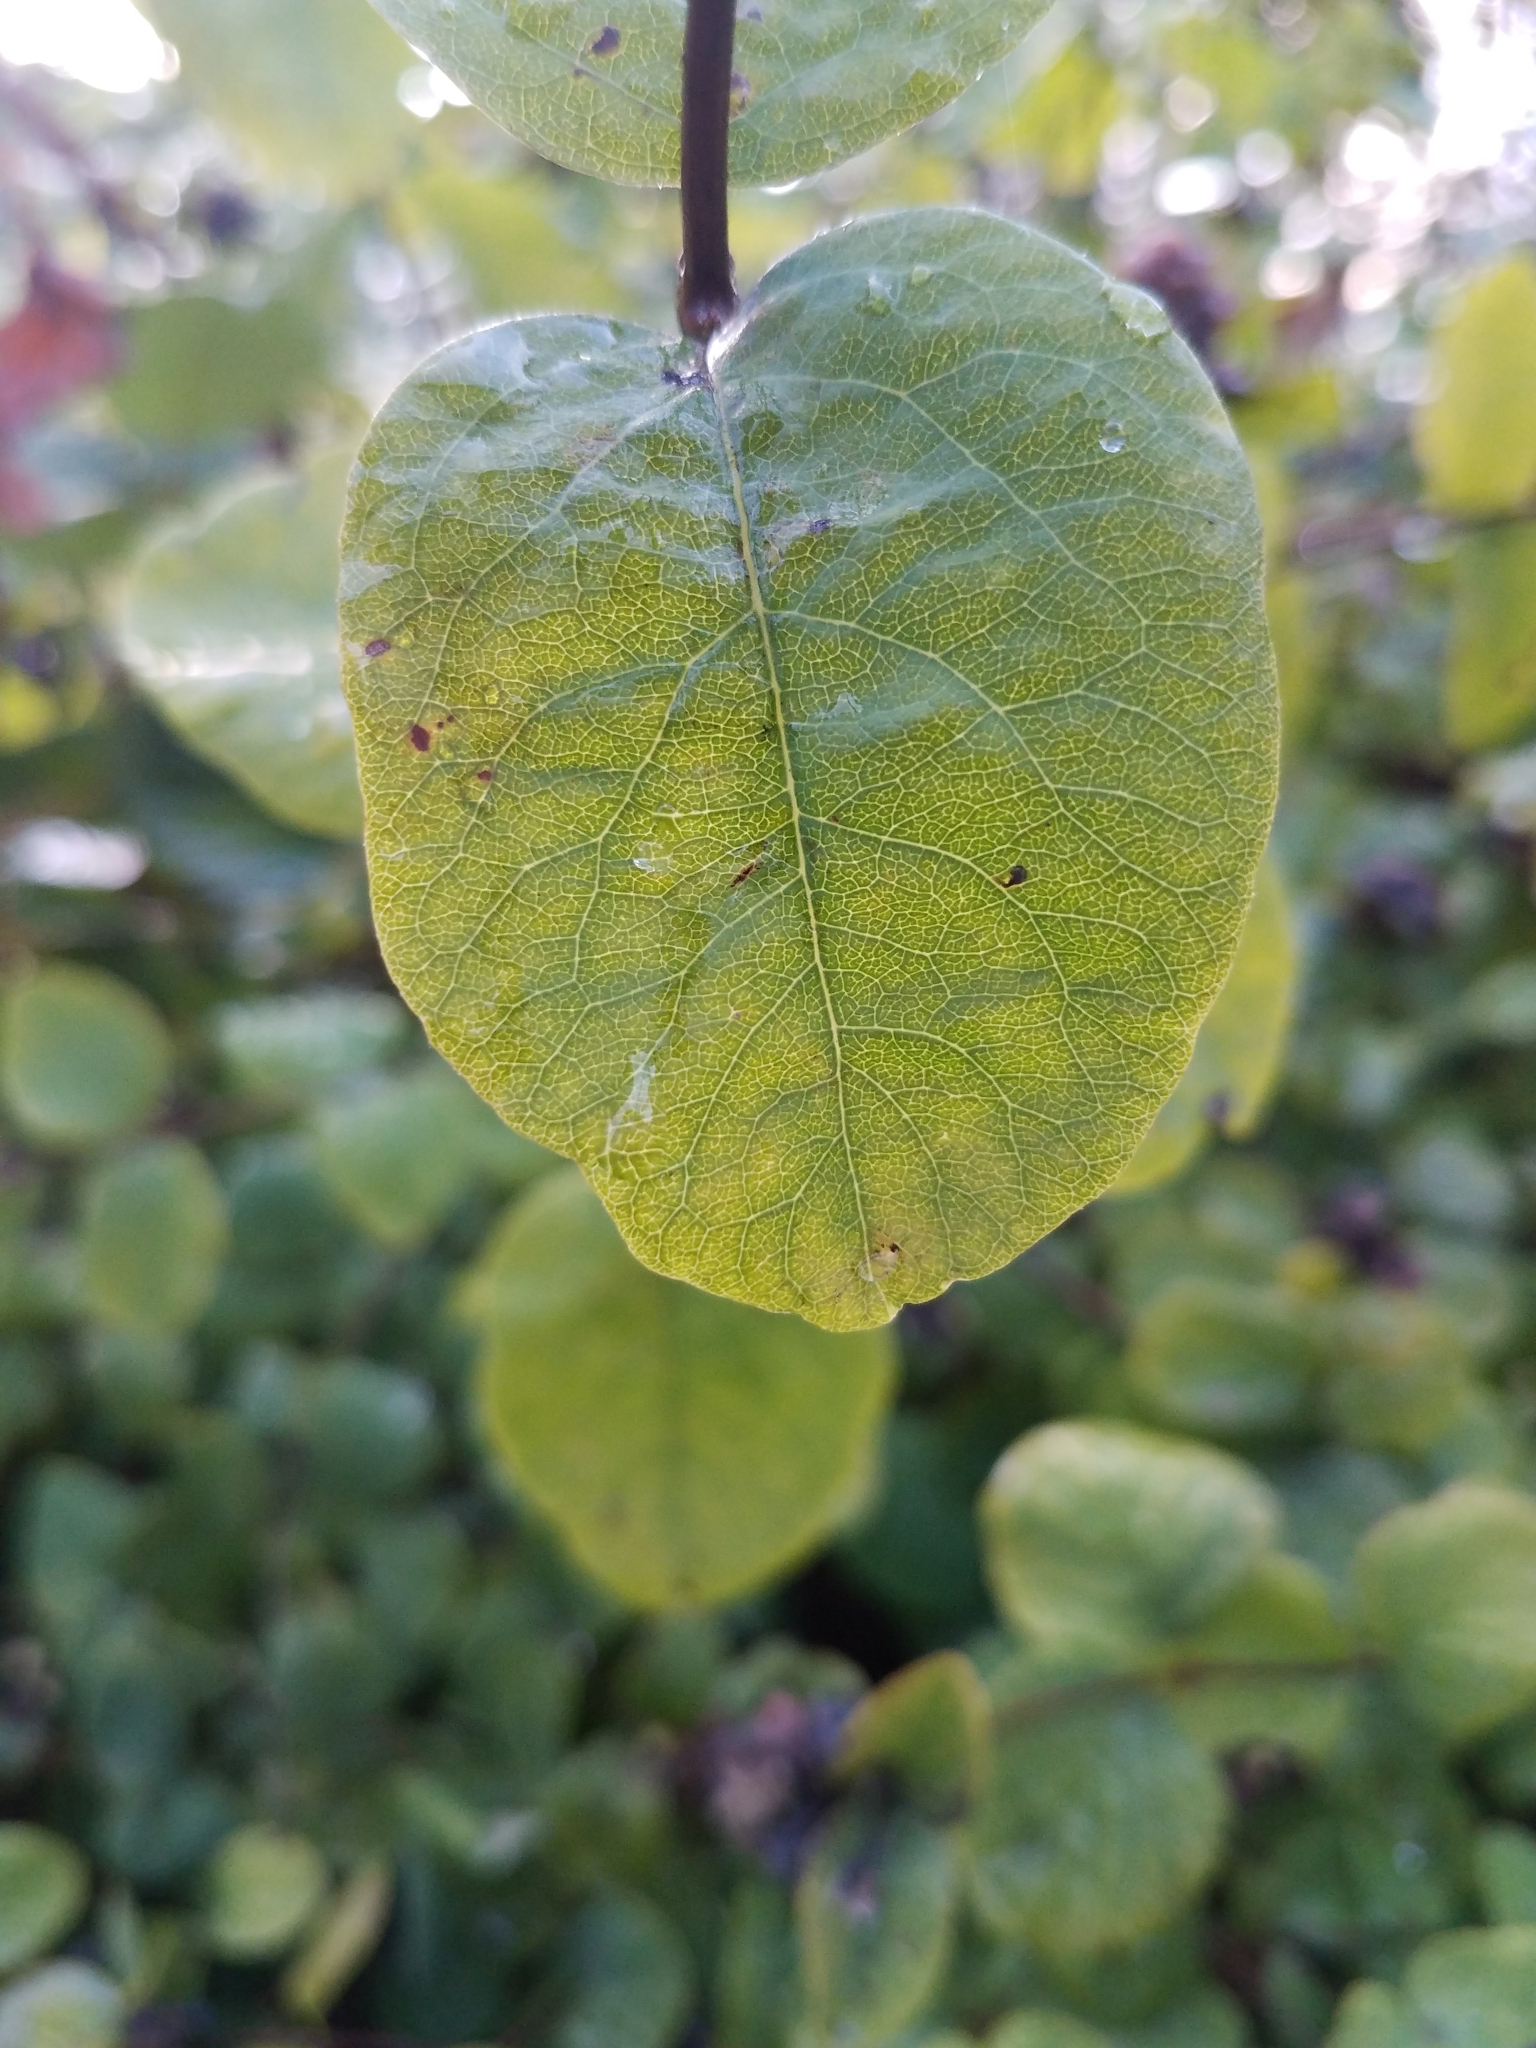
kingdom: Plantae
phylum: Tracheophyta
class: Magnoliopsida
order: Dipsacales
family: Caprifoliaceae
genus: Symphoricarpos
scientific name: Symphoricarpos albus
